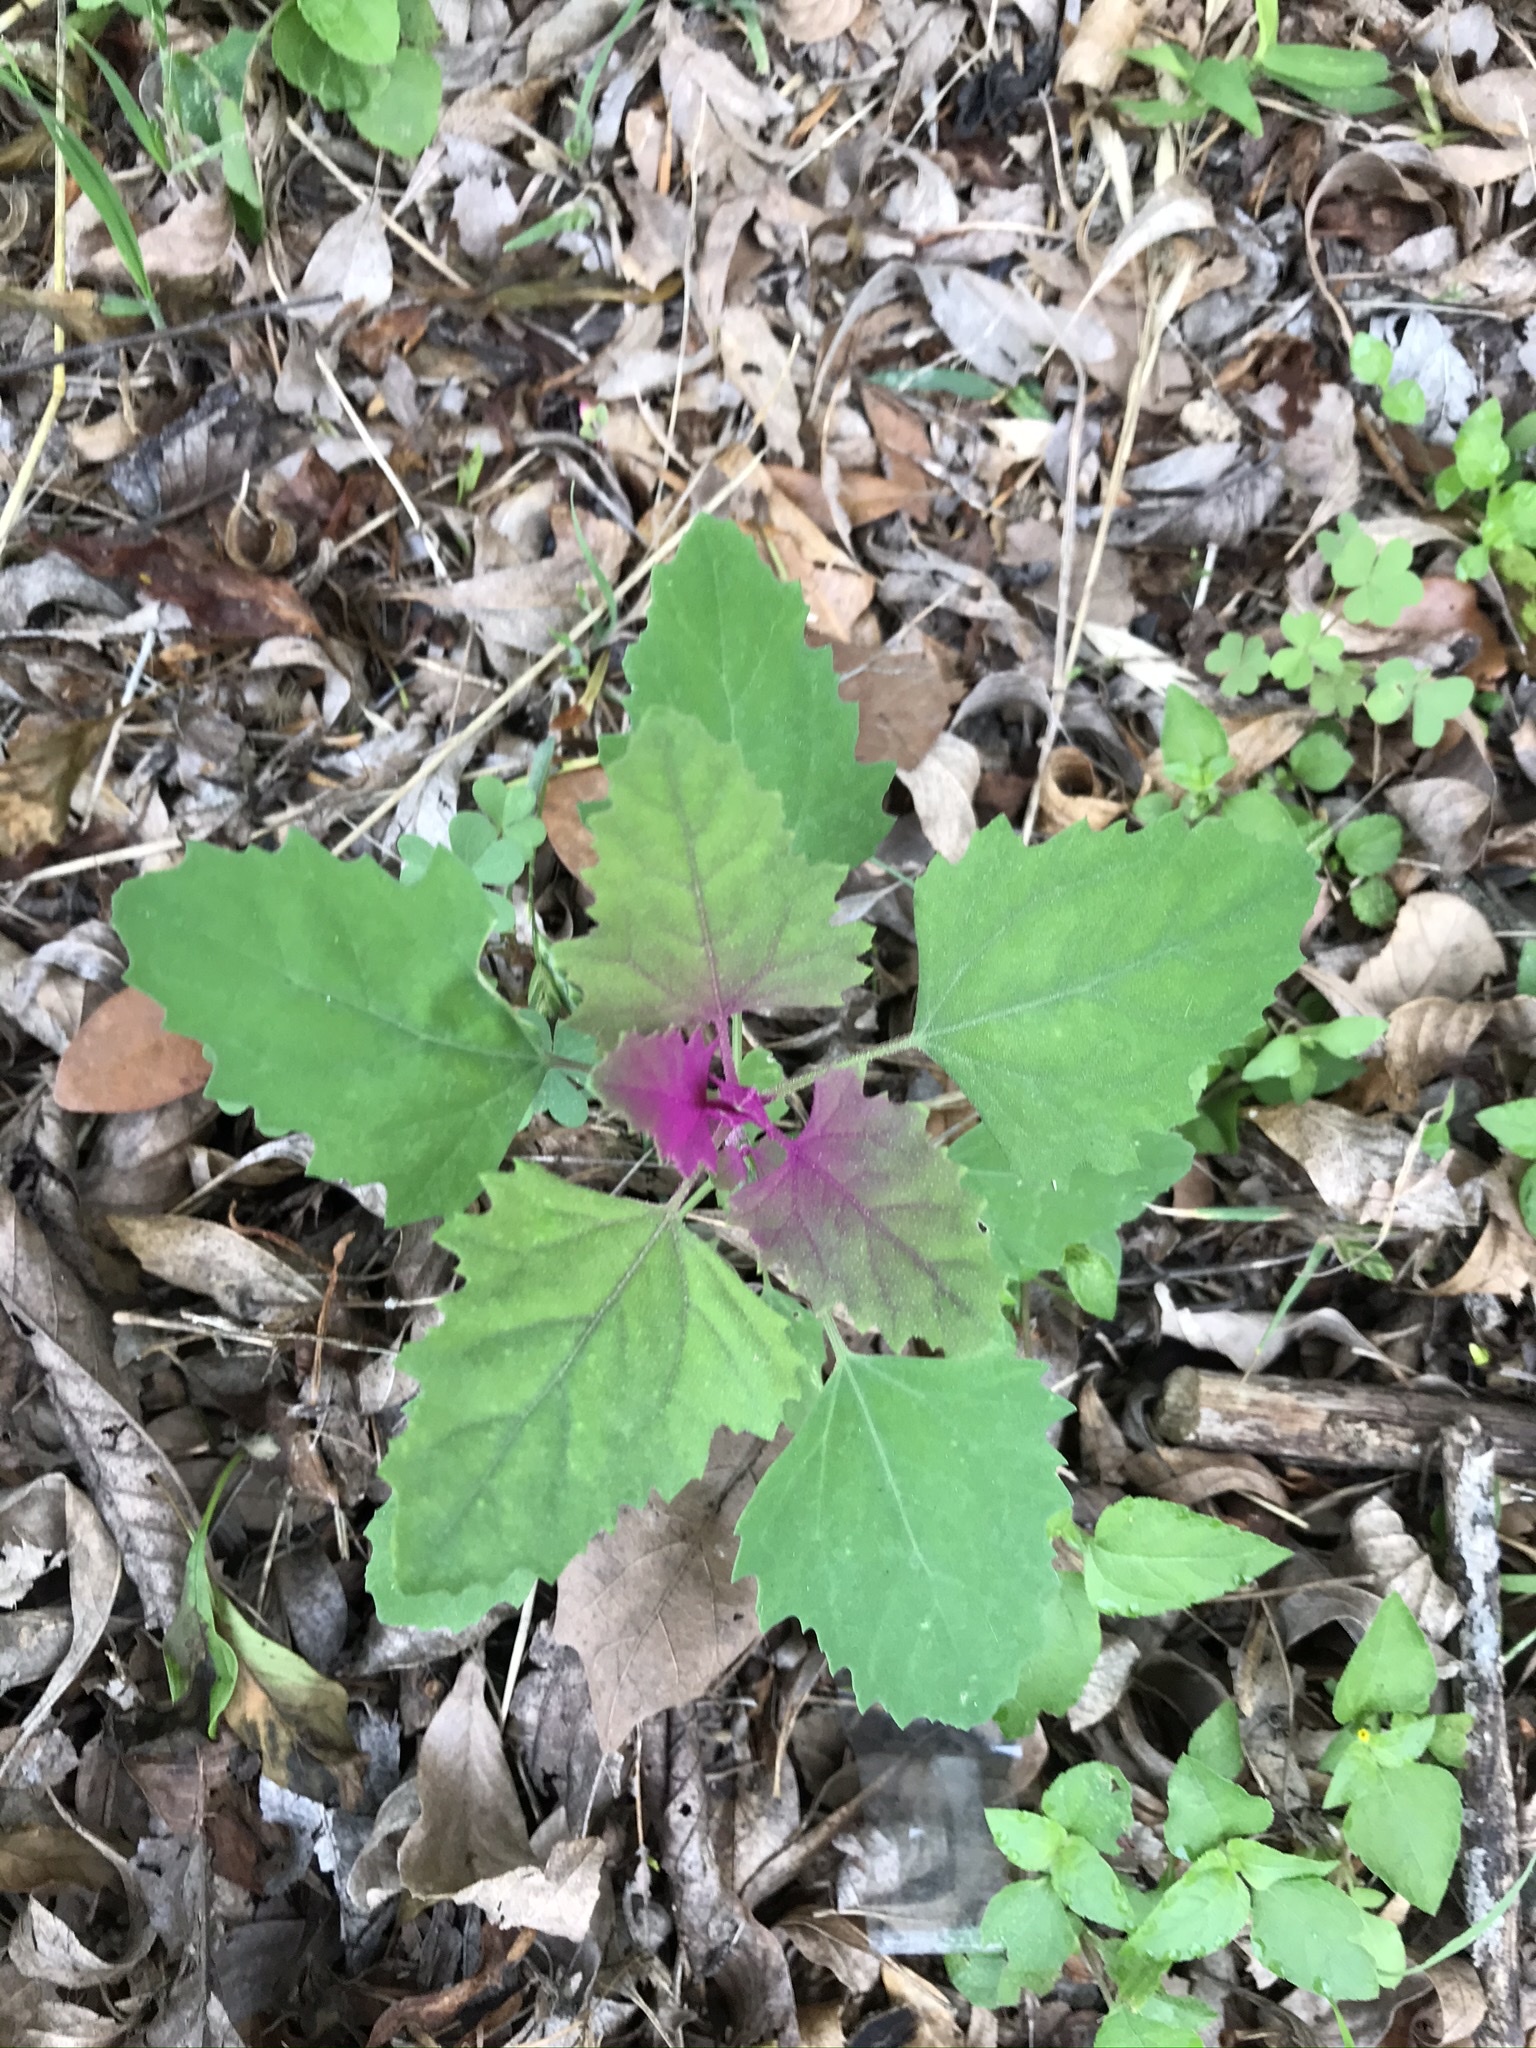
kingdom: Plantae
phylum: Tracheophyta
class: Magnoliopsida
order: Caryophyllales
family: Amaranthaceae
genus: Chenopodium
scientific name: Chenopodium giganteum
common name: Magentaspreen
